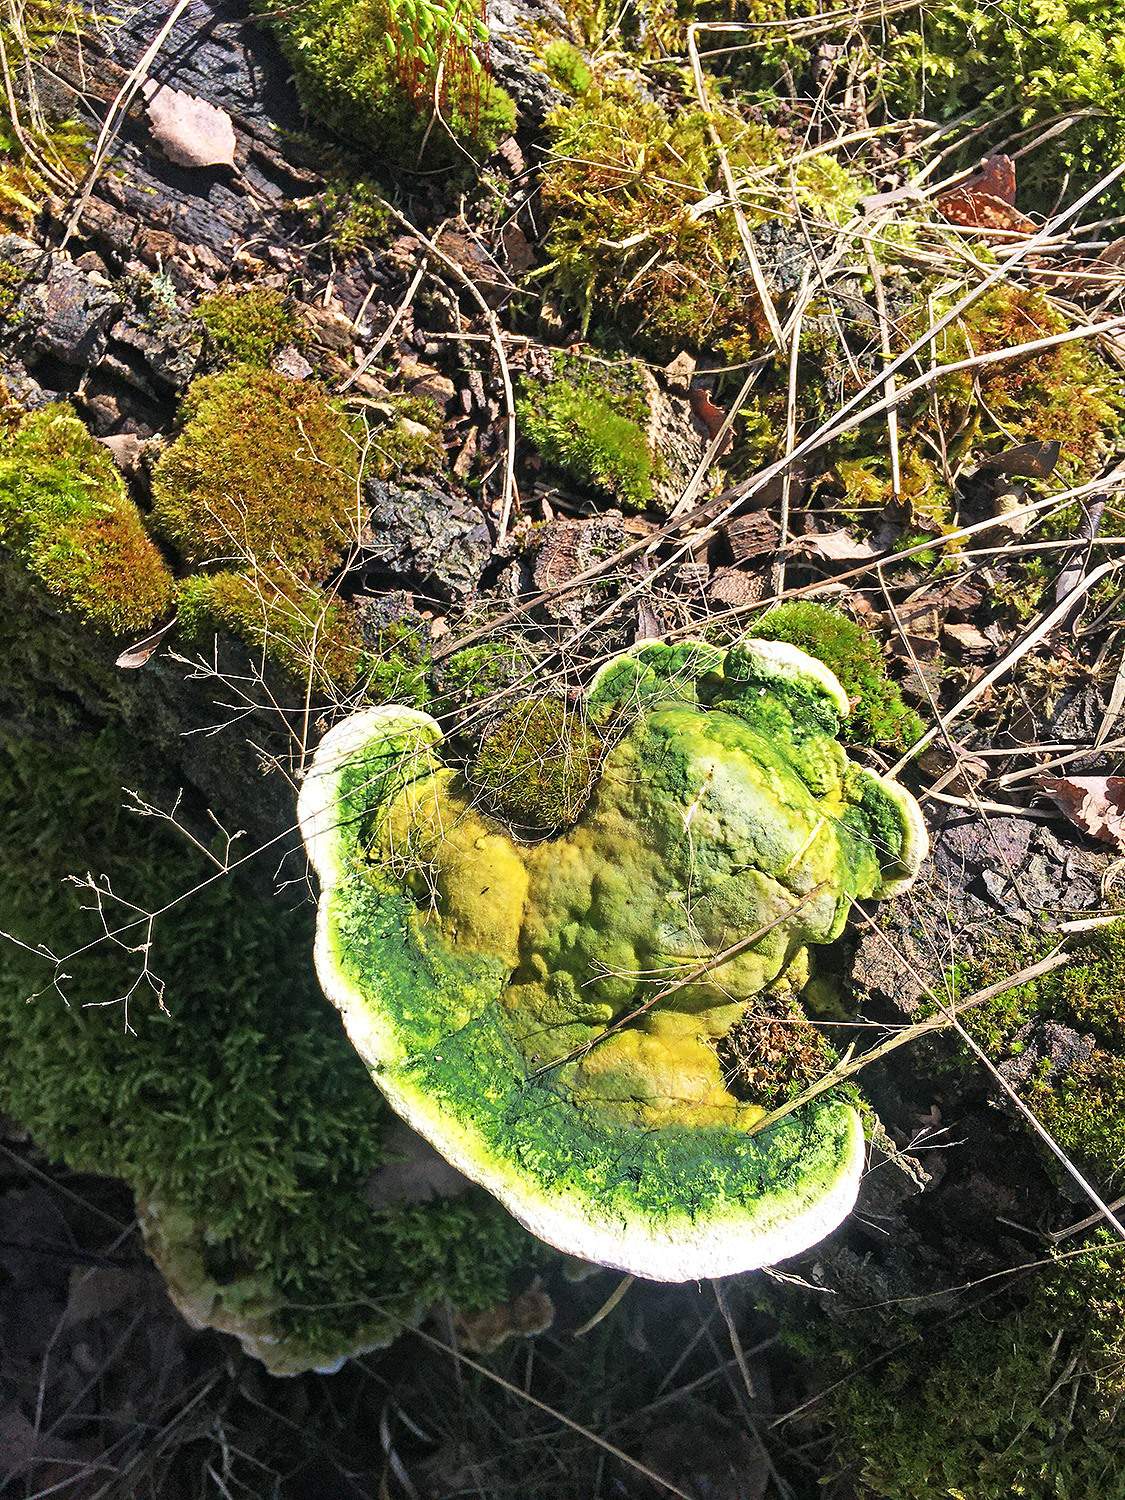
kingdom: Fungi
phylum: Basidiomycota
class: Agaricomycetes
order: Polyporales
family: Polyporaceae
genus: Trametes
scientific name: Trametes gibbosa
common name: Lumpy bracket
